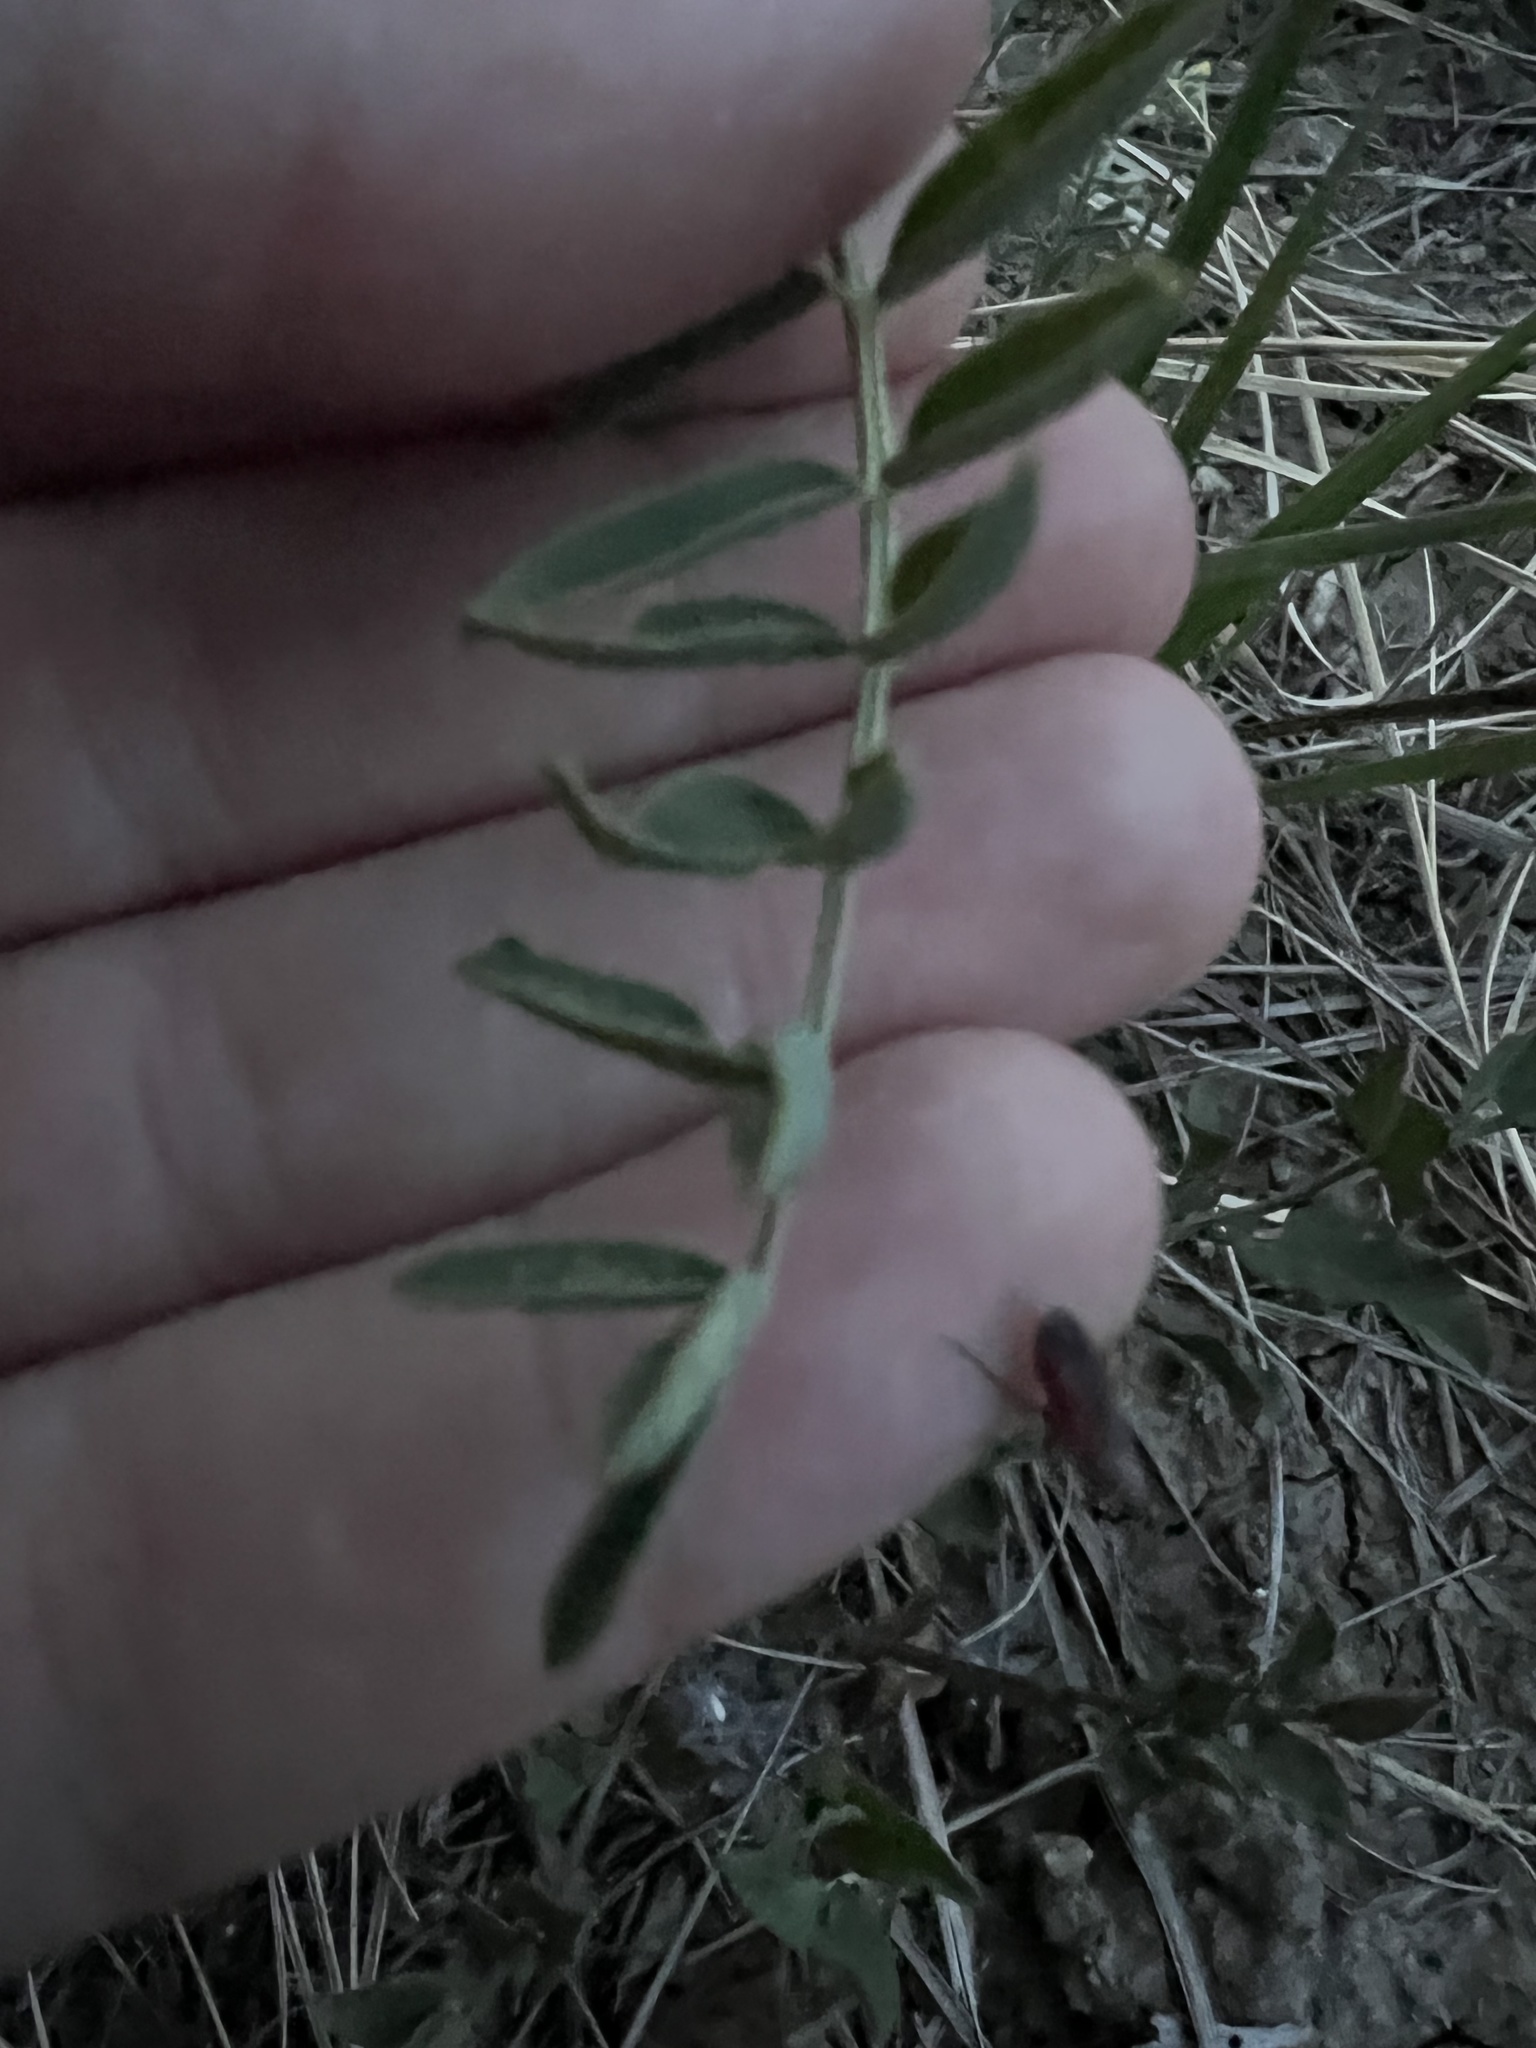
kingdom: Plantae
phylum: Tracheophyta
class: Magnoliopsida
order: Fabales
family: Fabaceae
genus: Astragalus
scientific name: Astragalus bisulcatus
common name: Two-groove milk-vetch
